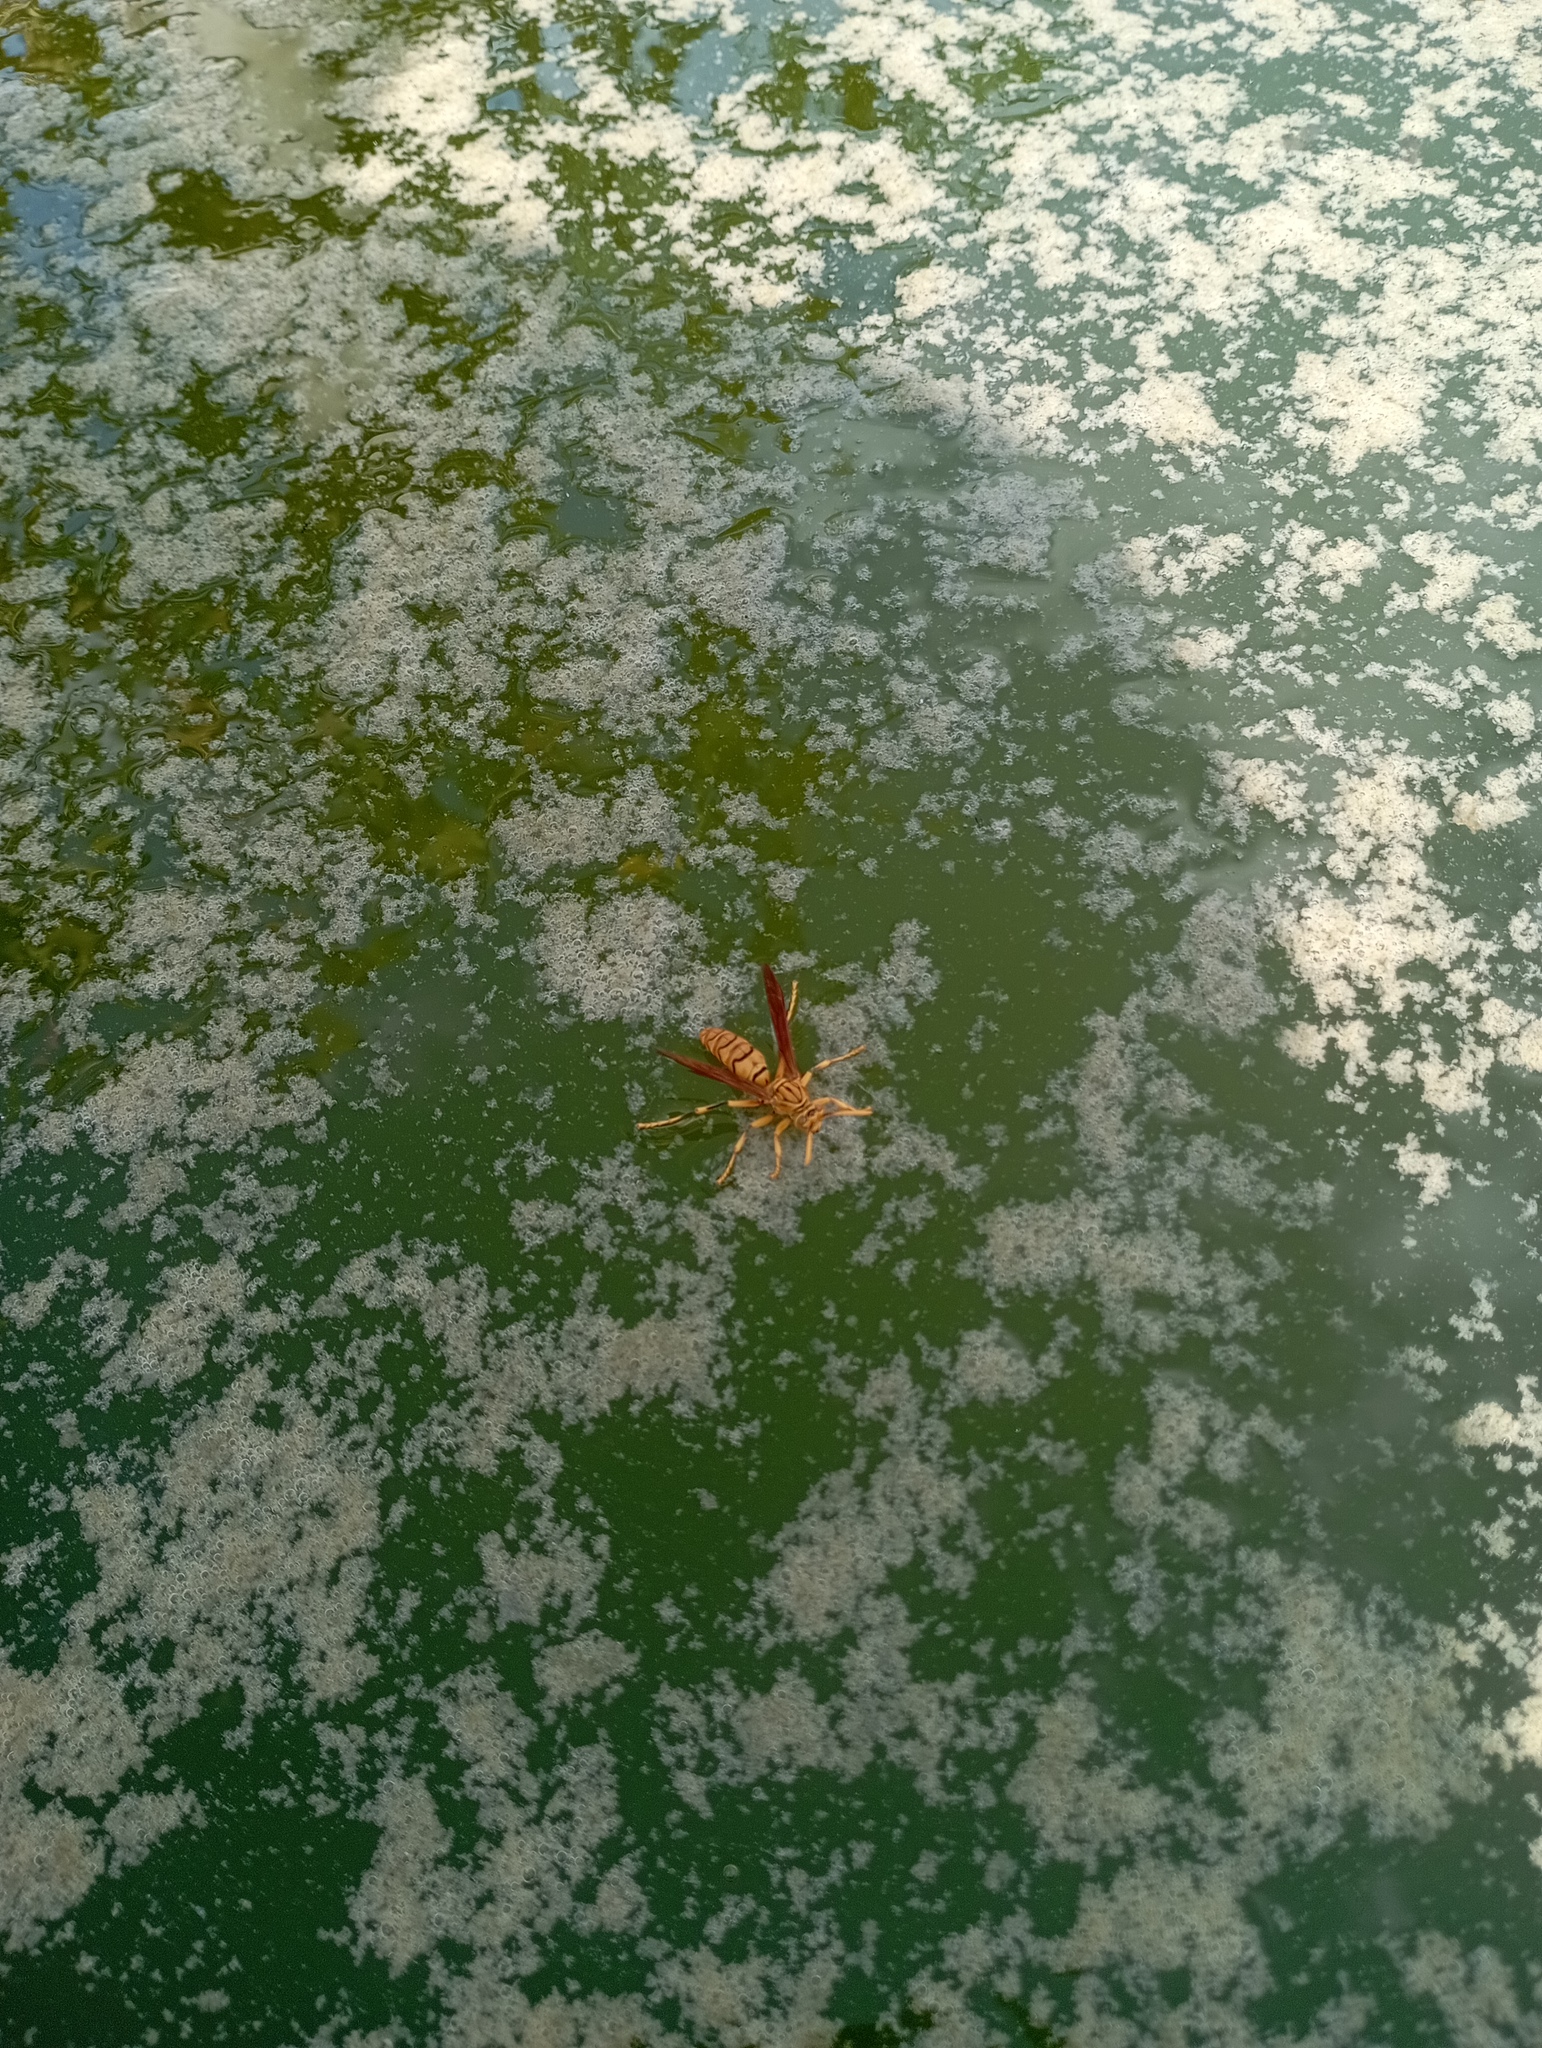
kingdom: Animalia
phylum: Arthropoda
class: Insecta
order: Hymenoptera
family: Eumenidae
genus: Polistes
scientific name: Polistes olivaceus
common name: Paper wasp
